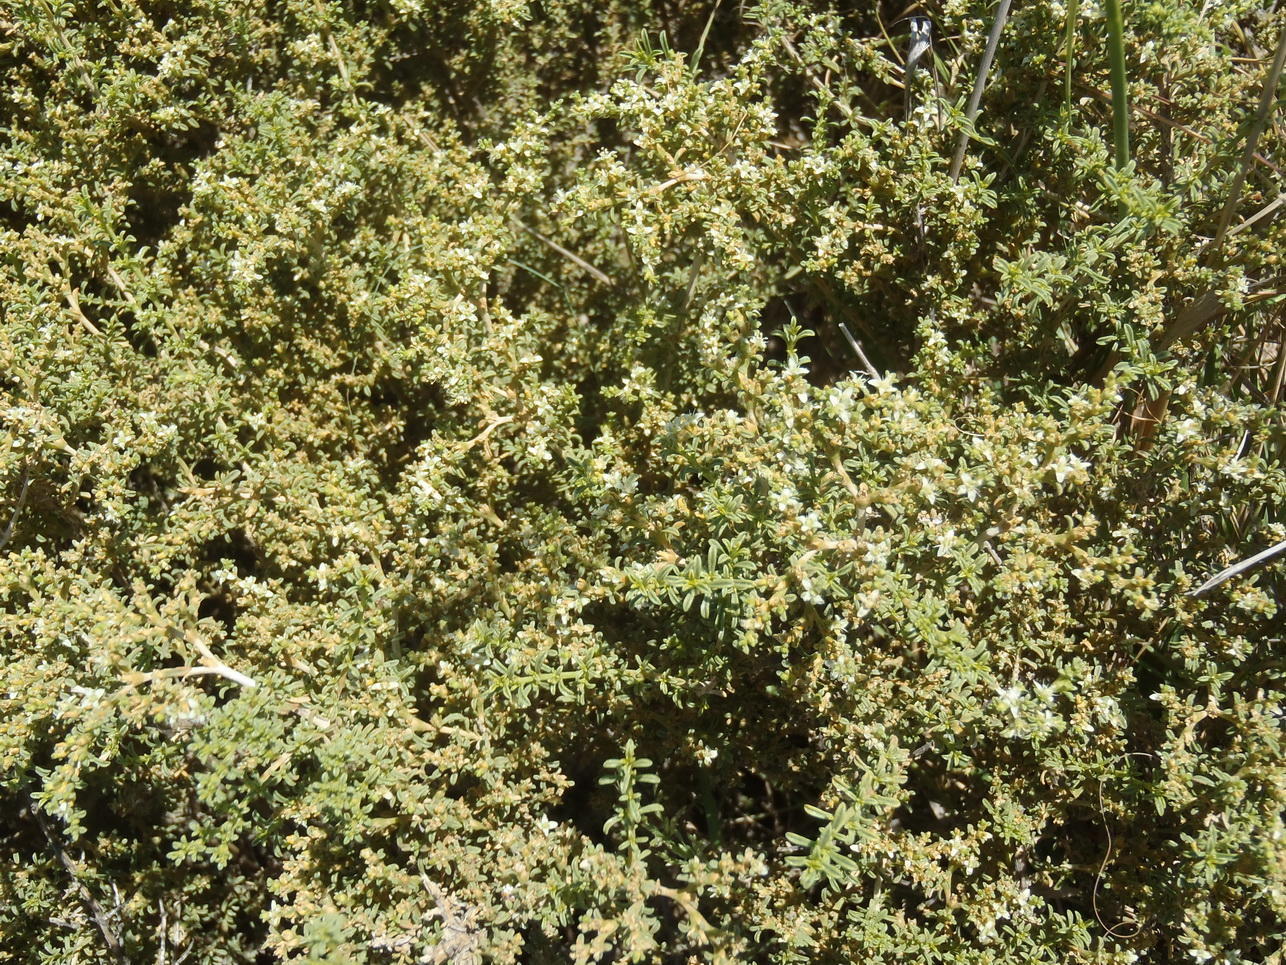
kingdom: Plantae
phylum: Tracheophyta
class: Magnoliopsida
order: Caryophyllales
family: Aizoaceae
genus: Aizoon
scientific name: Aizoon cymosum
